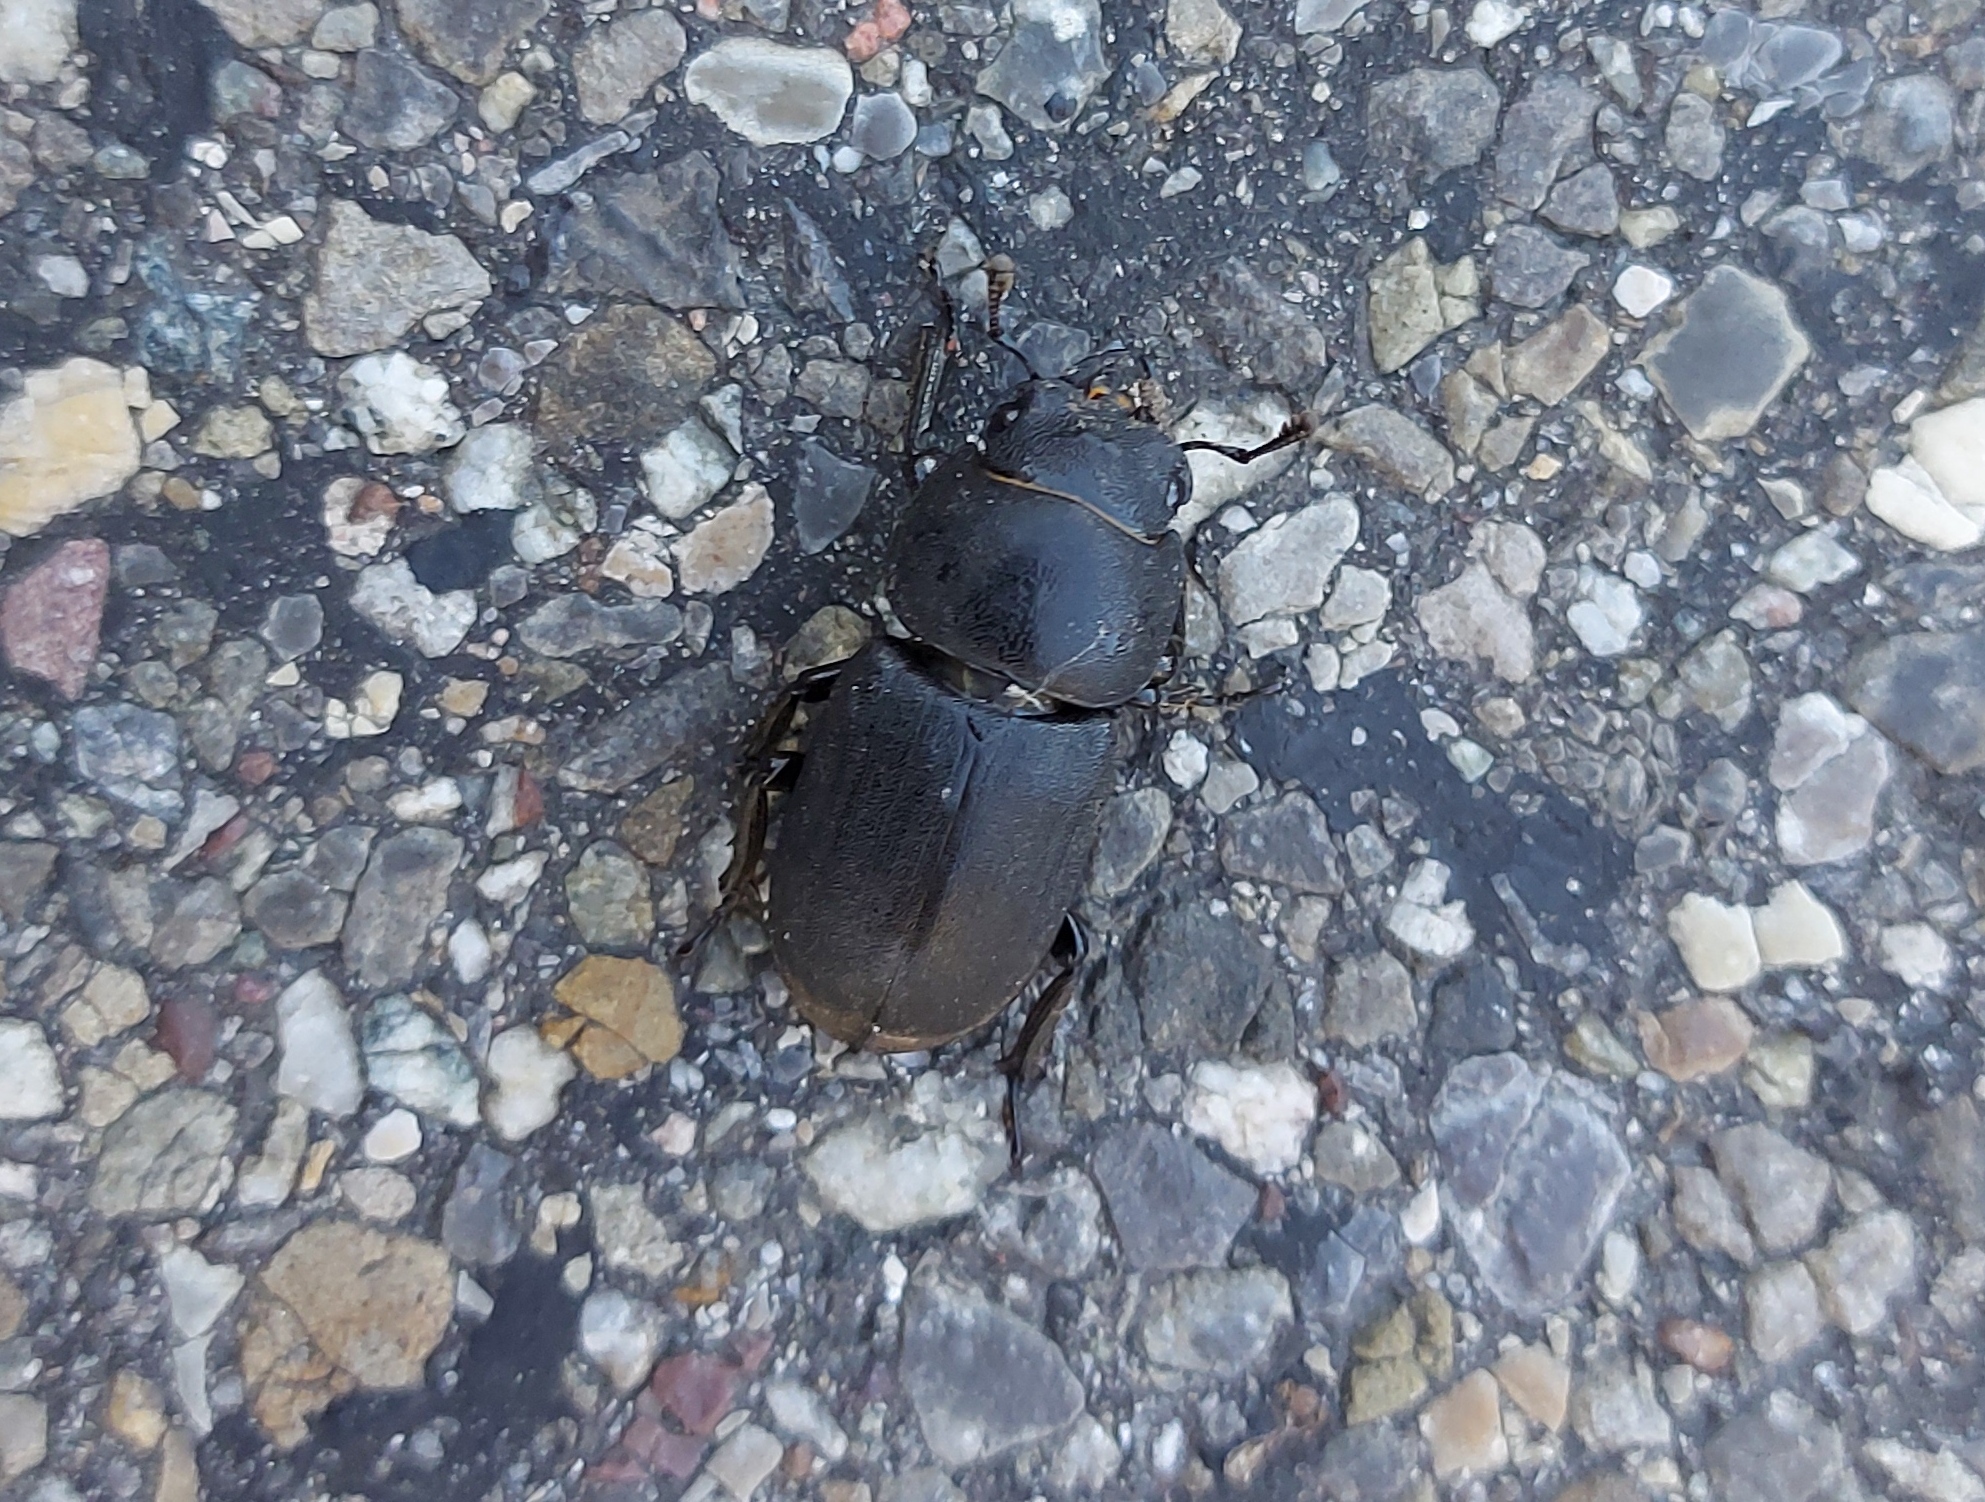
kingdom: Animalia
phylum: Arthropoda
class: Insecta
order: Coleoptera
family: Lucanidae
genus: Dorcus
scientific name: Dorcus parallelipipedus
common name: Lesser stag beetle
